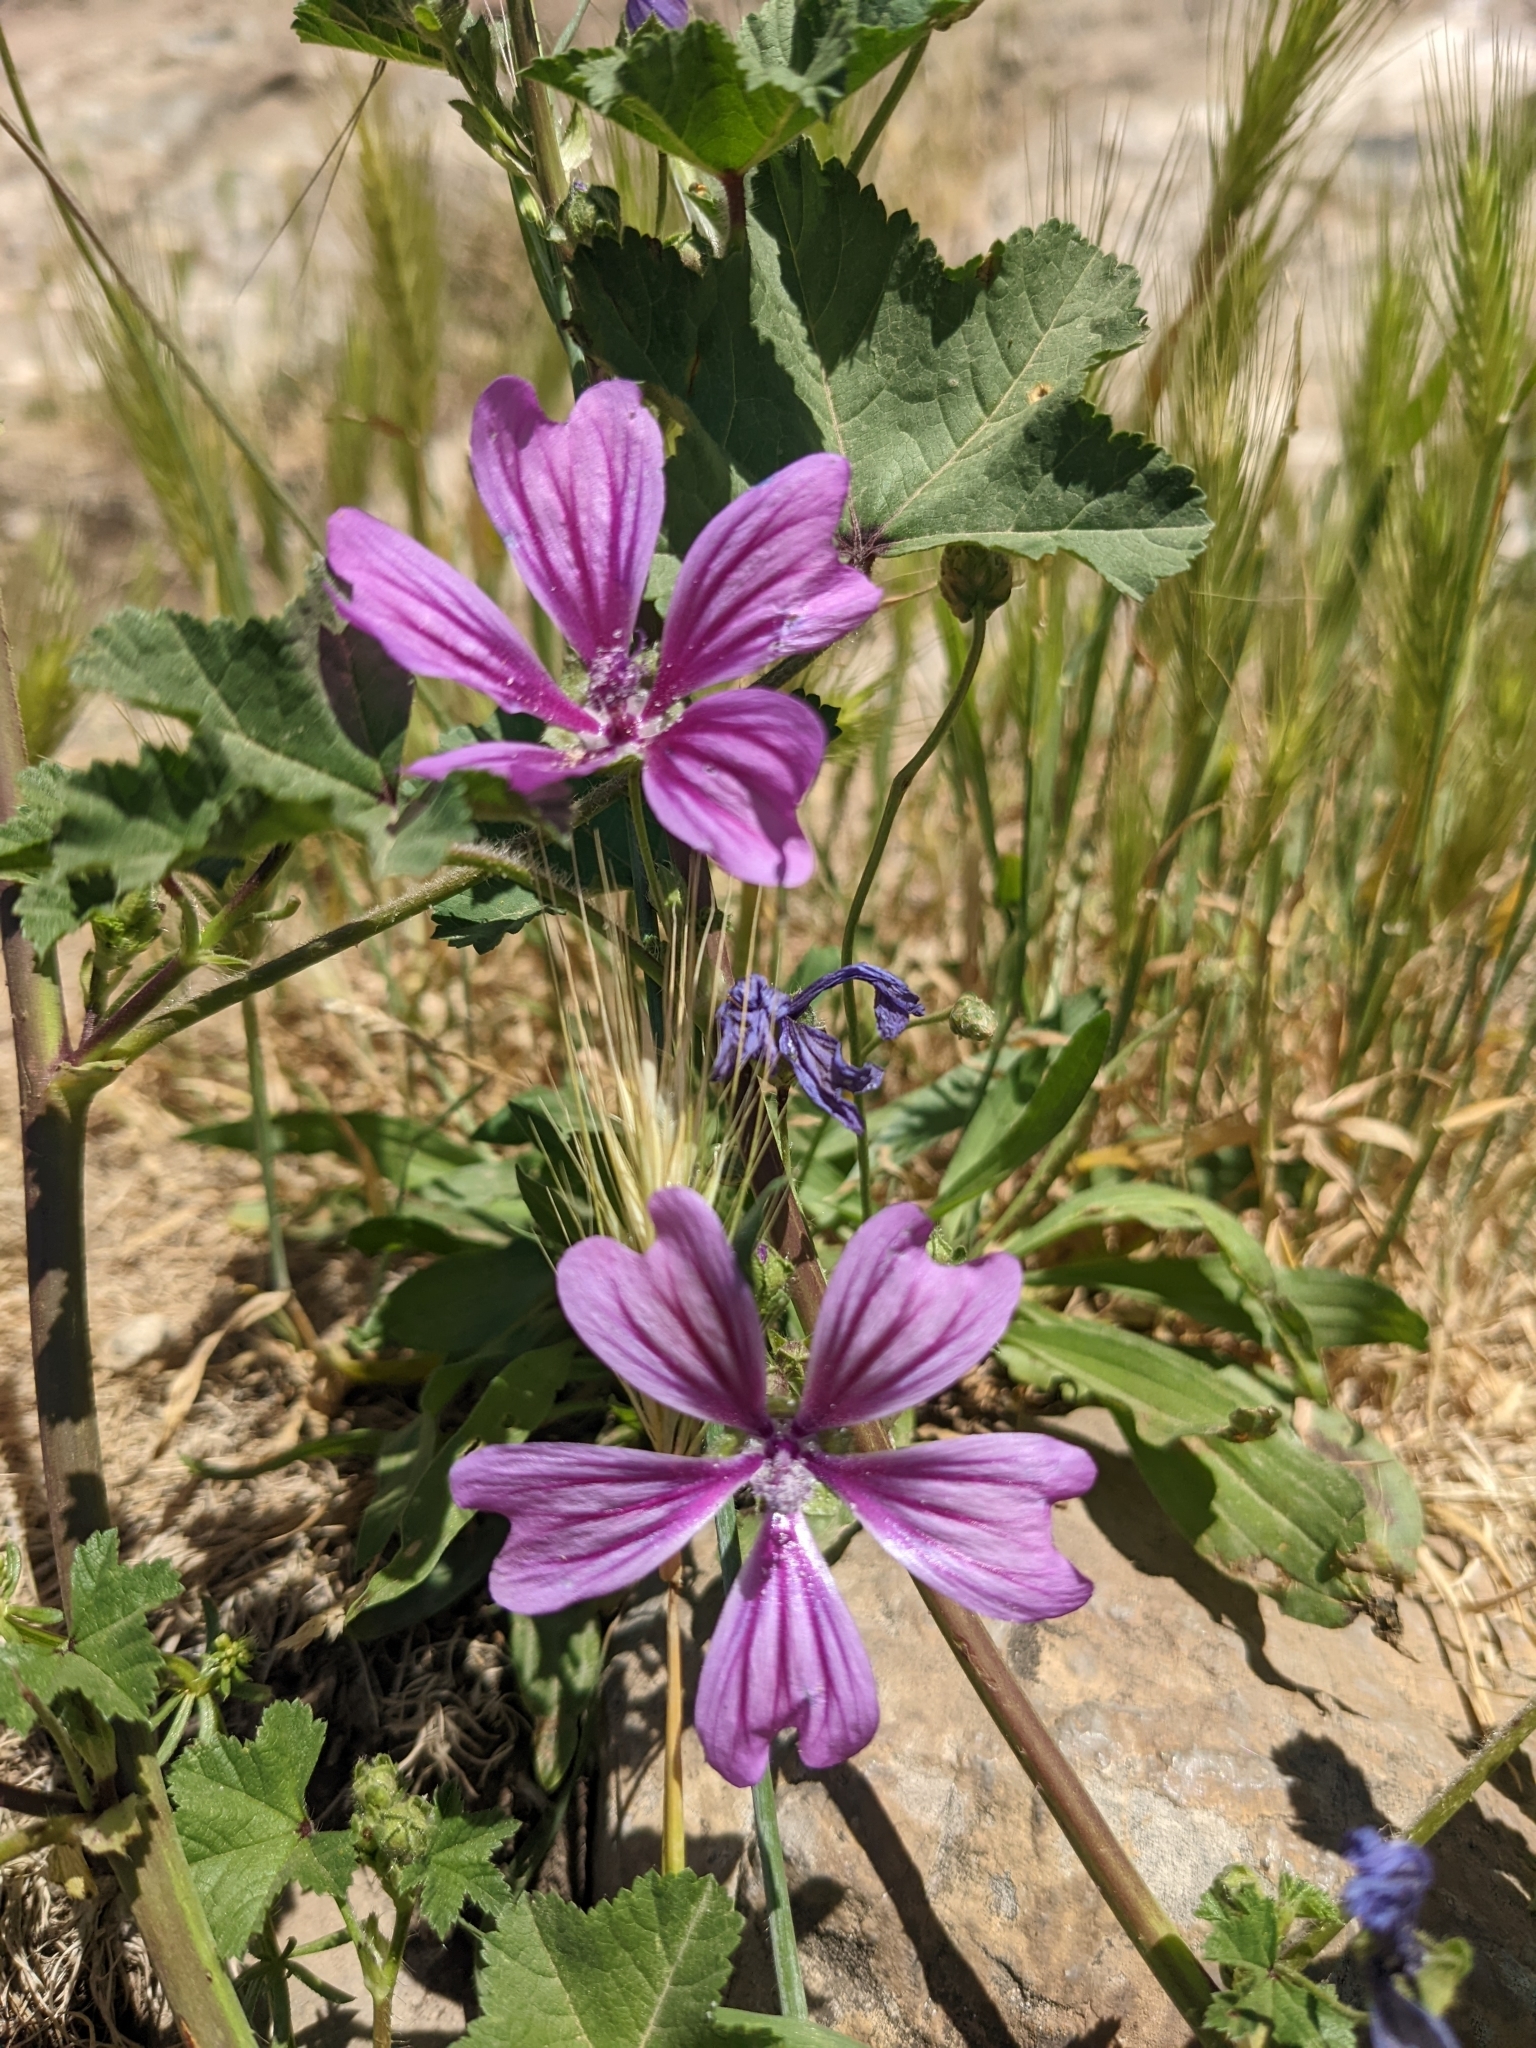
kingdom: Plantae
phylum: Tracheophyta
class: Magnoliopsida
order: Malvales
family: Malvaceae
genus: Malva
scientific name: Malva sylvestris
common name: Common mallow
